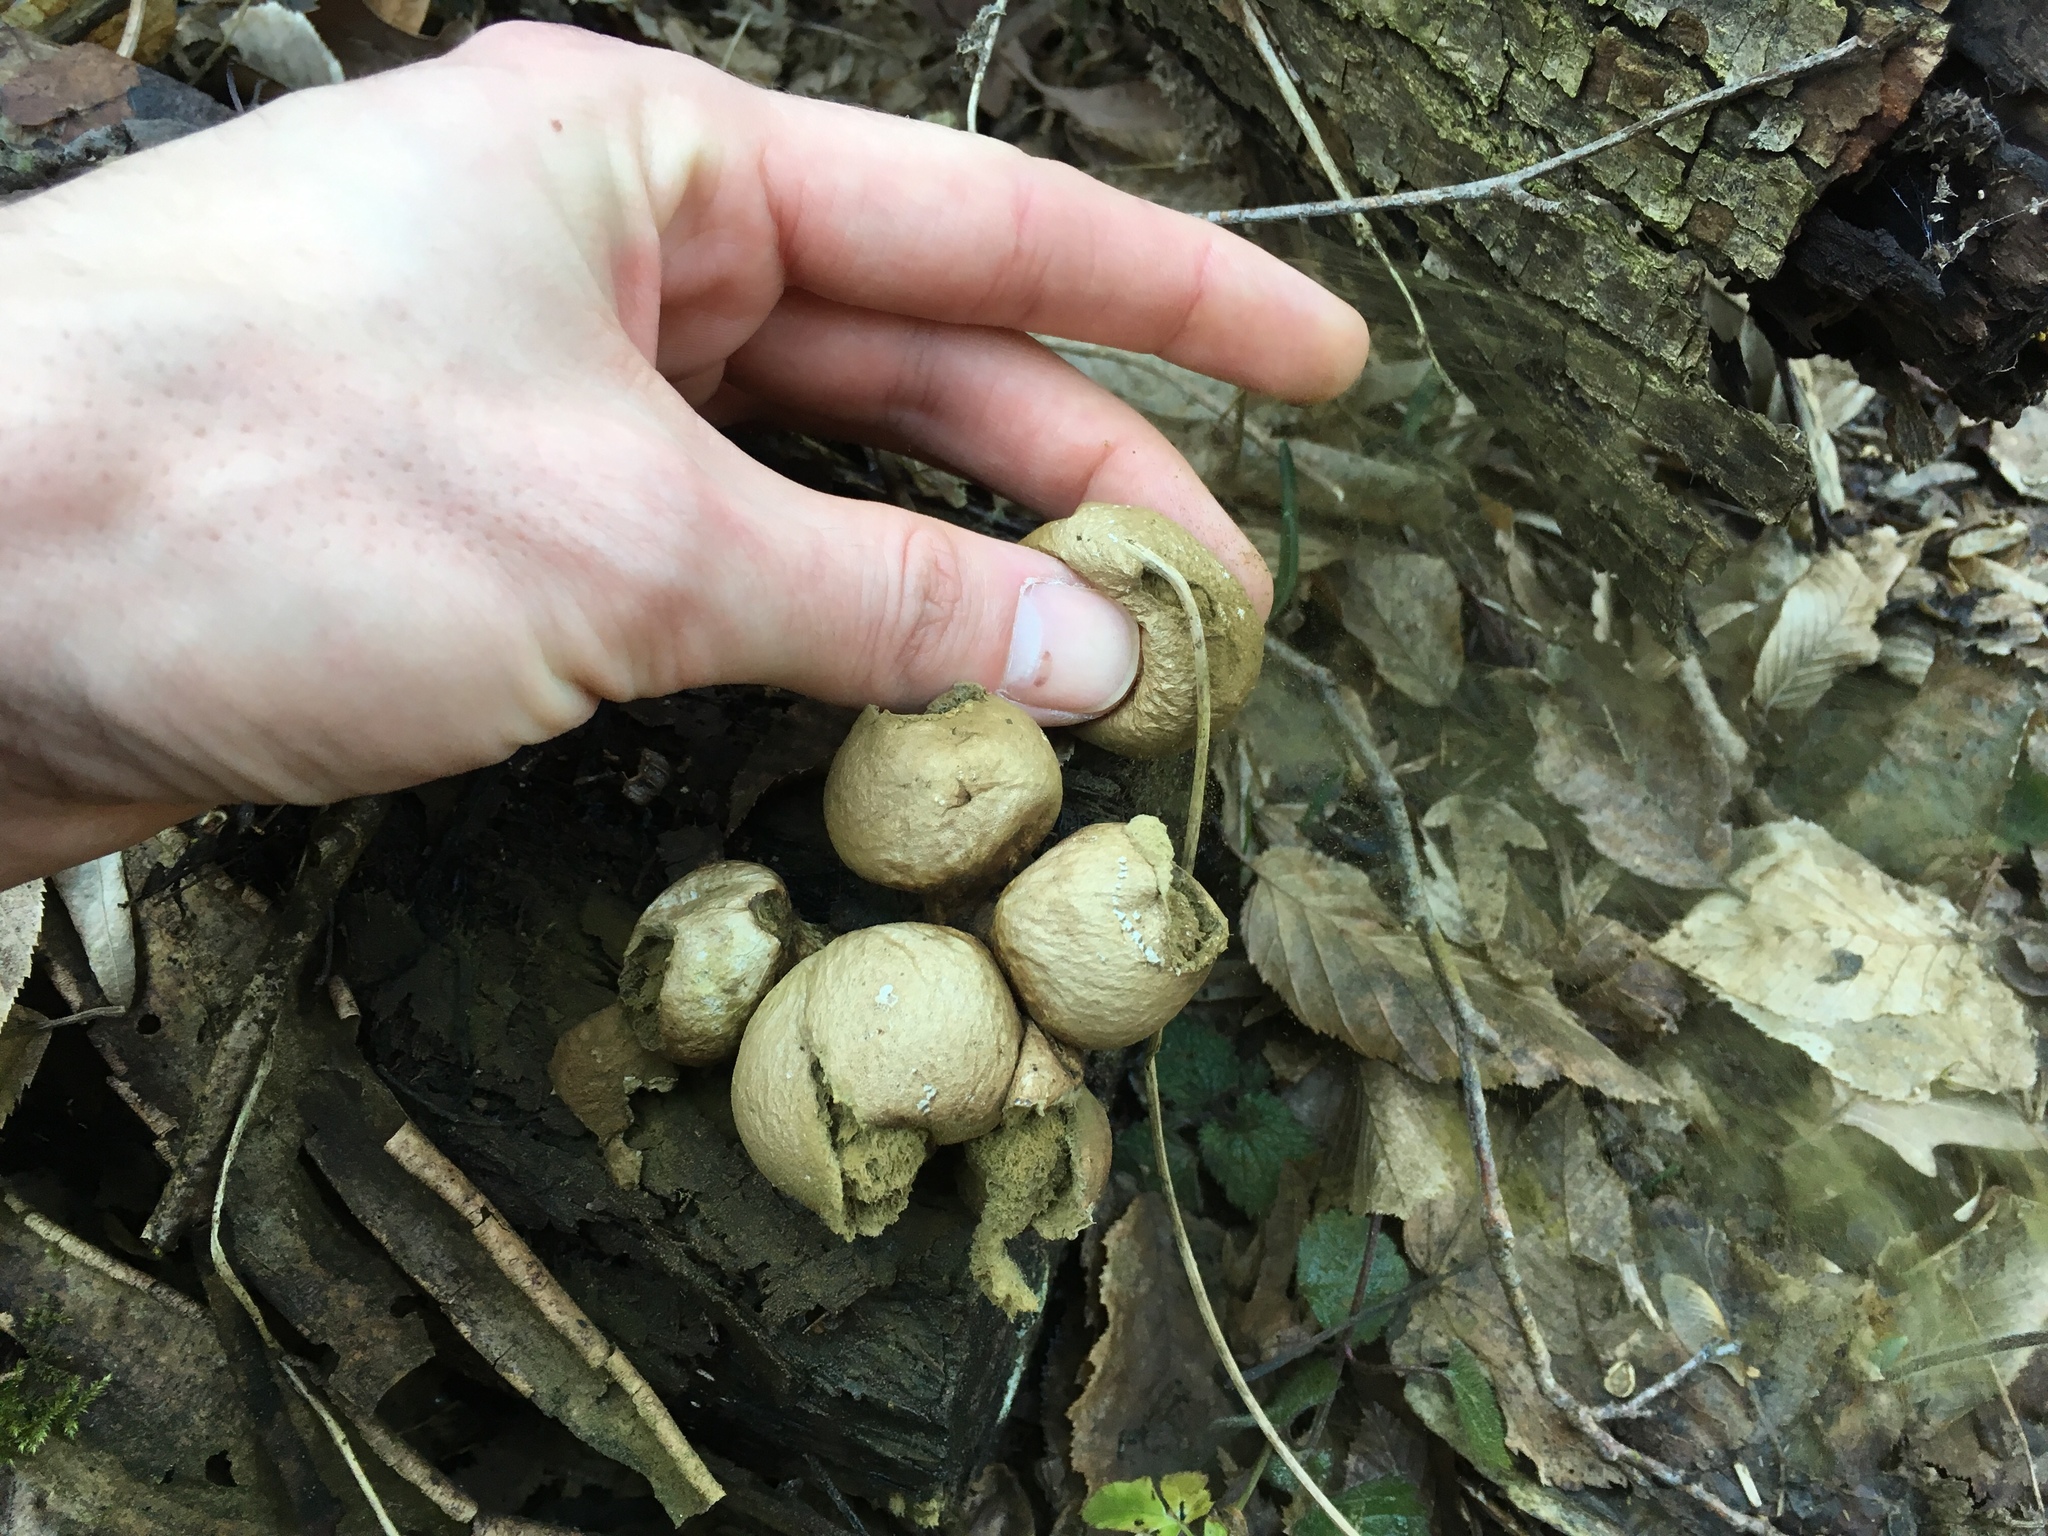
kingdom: Fungi
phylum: Basidiomycota
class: Agaricomycetes
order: Agaricales
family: Lycoperdaceae
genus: Apioperdon
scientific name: Apioperdon pyriforme
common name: Pear-shaped puffball
